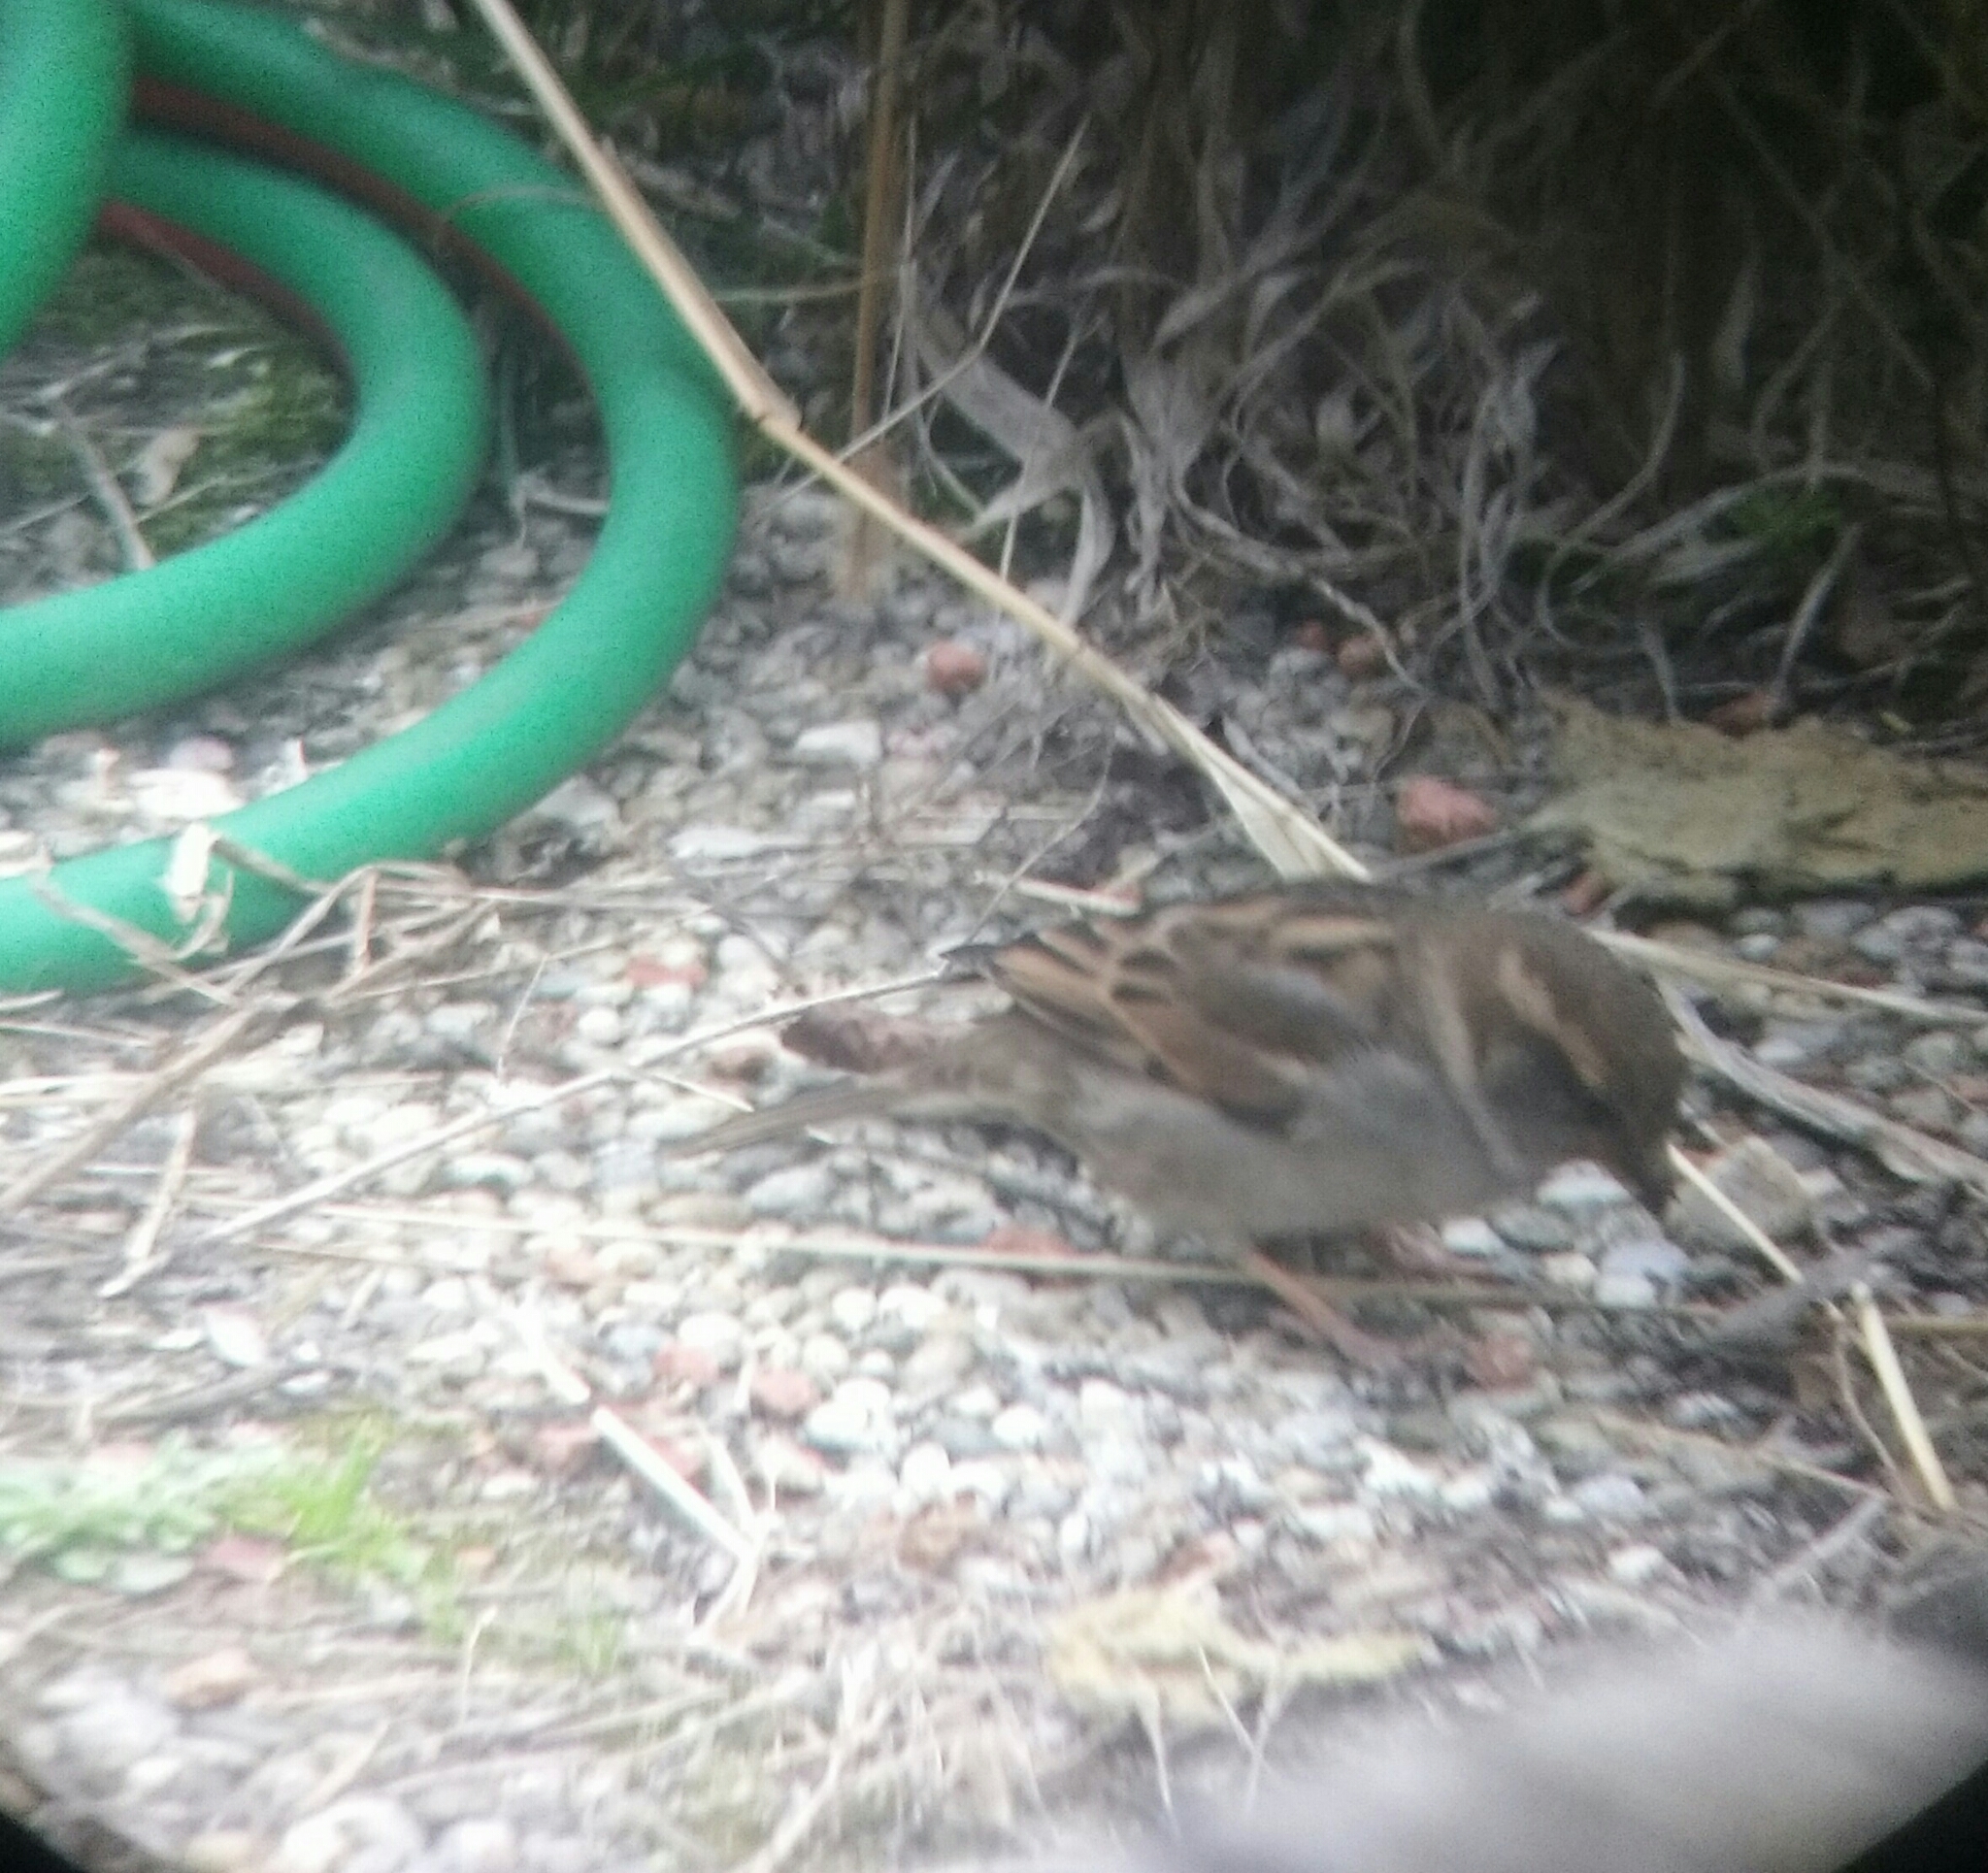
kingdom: Animalia
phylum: Chordata
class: Aves
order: Passeriformes
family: Passeridae
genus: Passer
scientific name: Passer domesticus
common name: House sparrow
